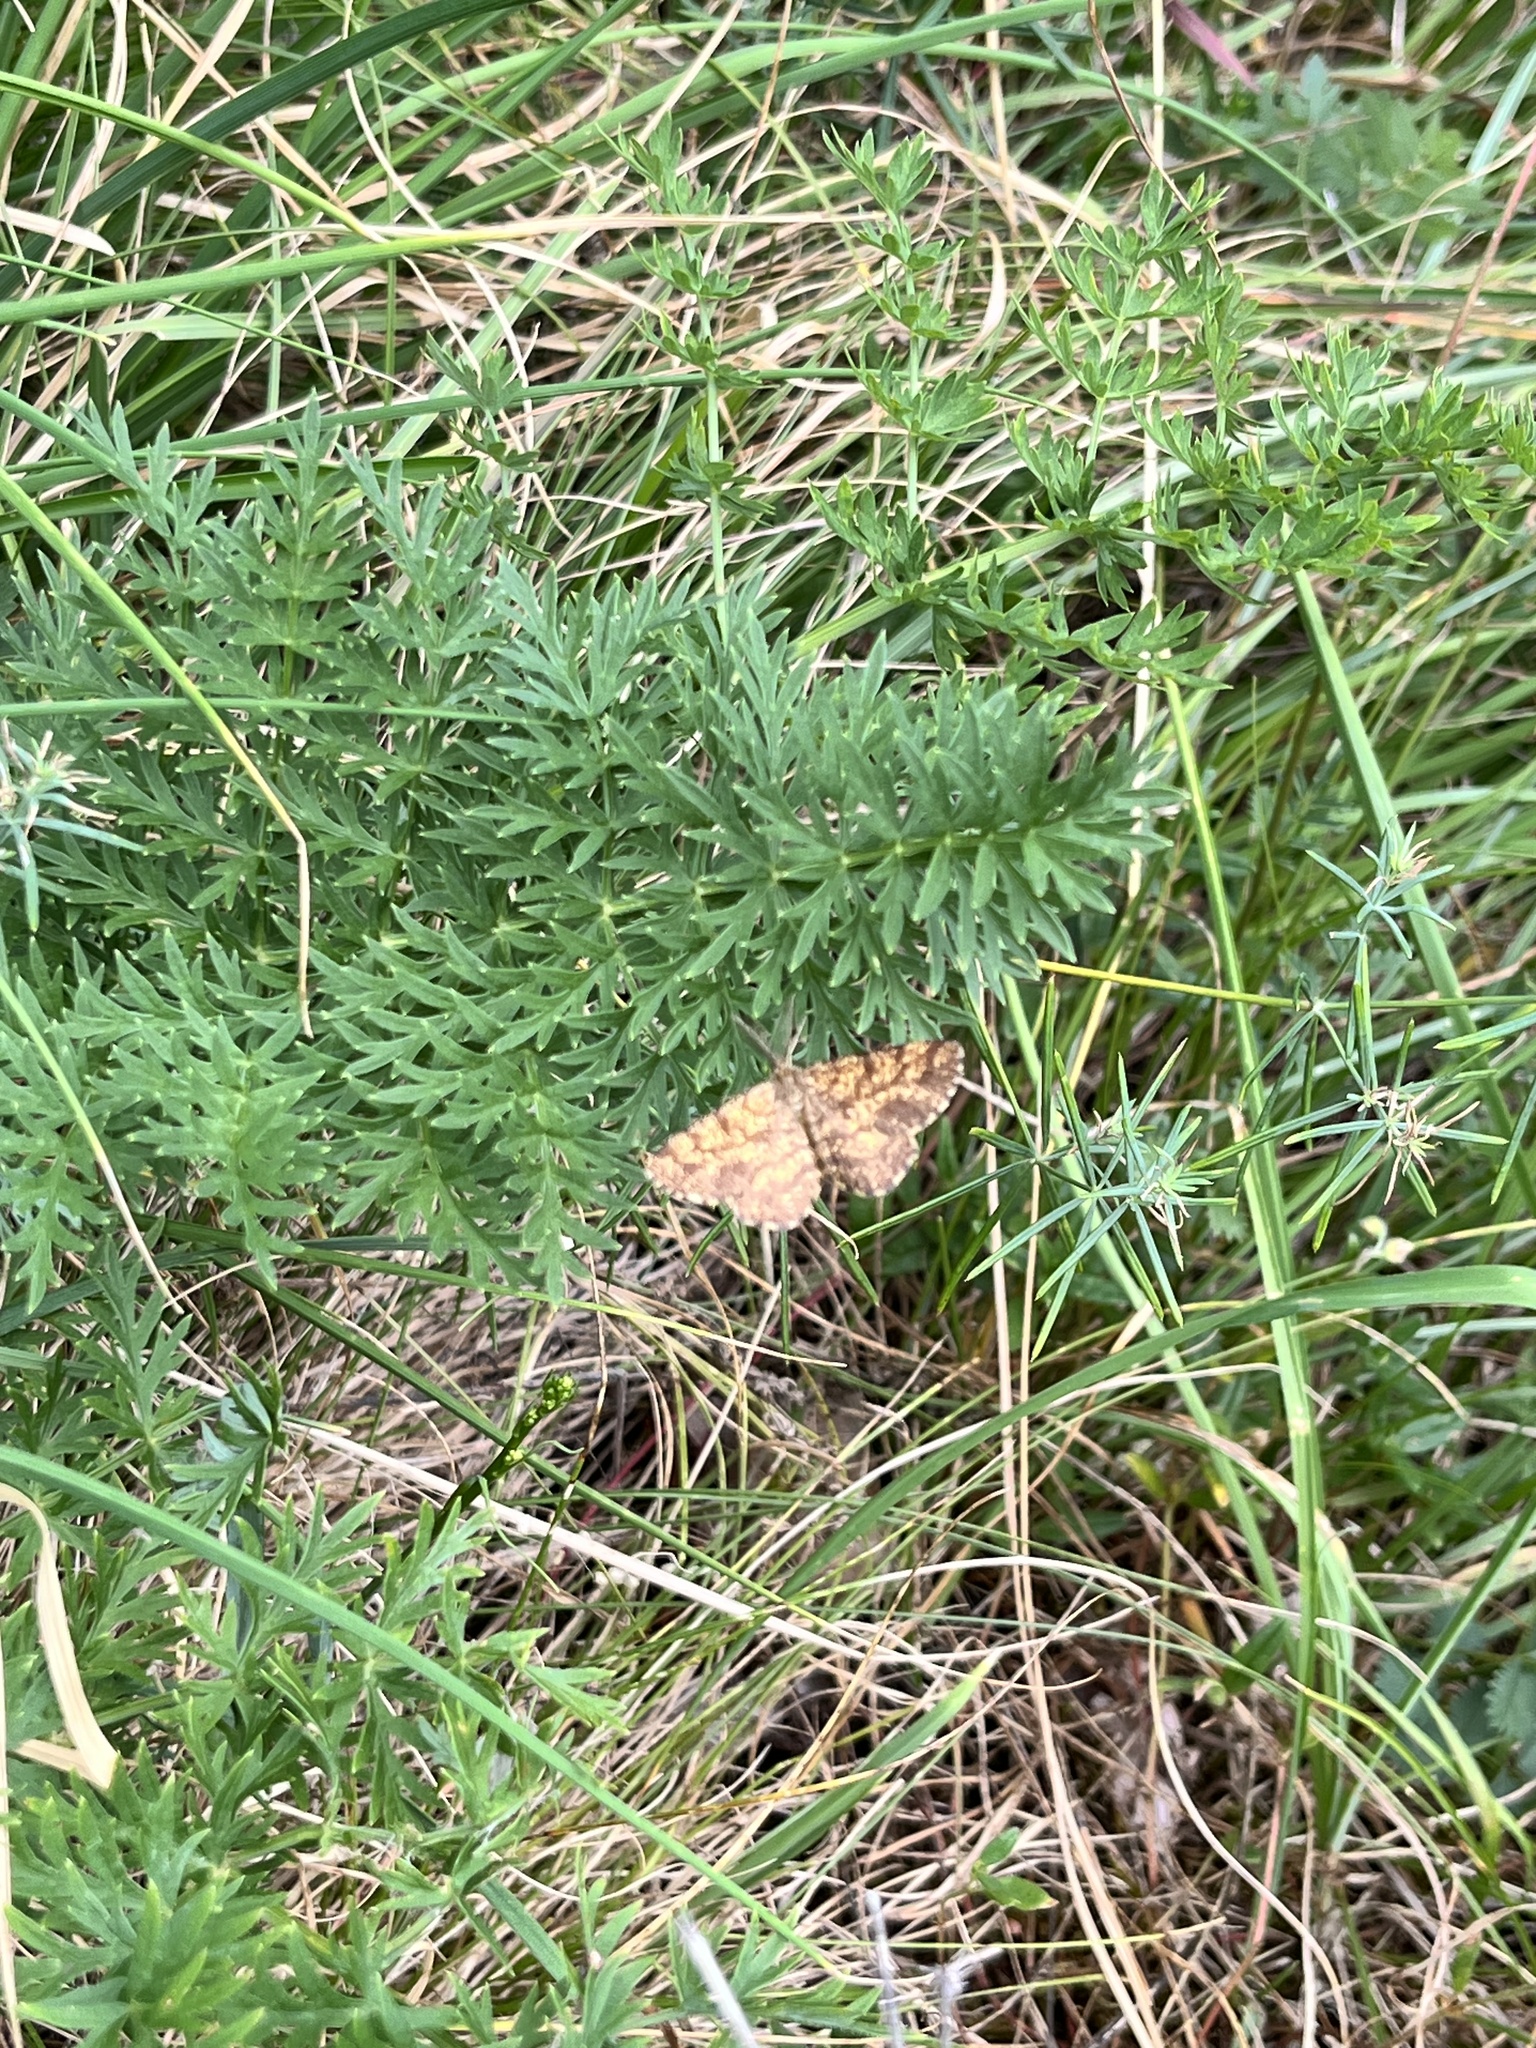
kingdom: Animalia
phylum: Arthropoda
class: Insecta
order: Lepidoptera
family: Geometridae
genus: Ematurga
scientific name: Ematurga atomaria
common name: Common heath
